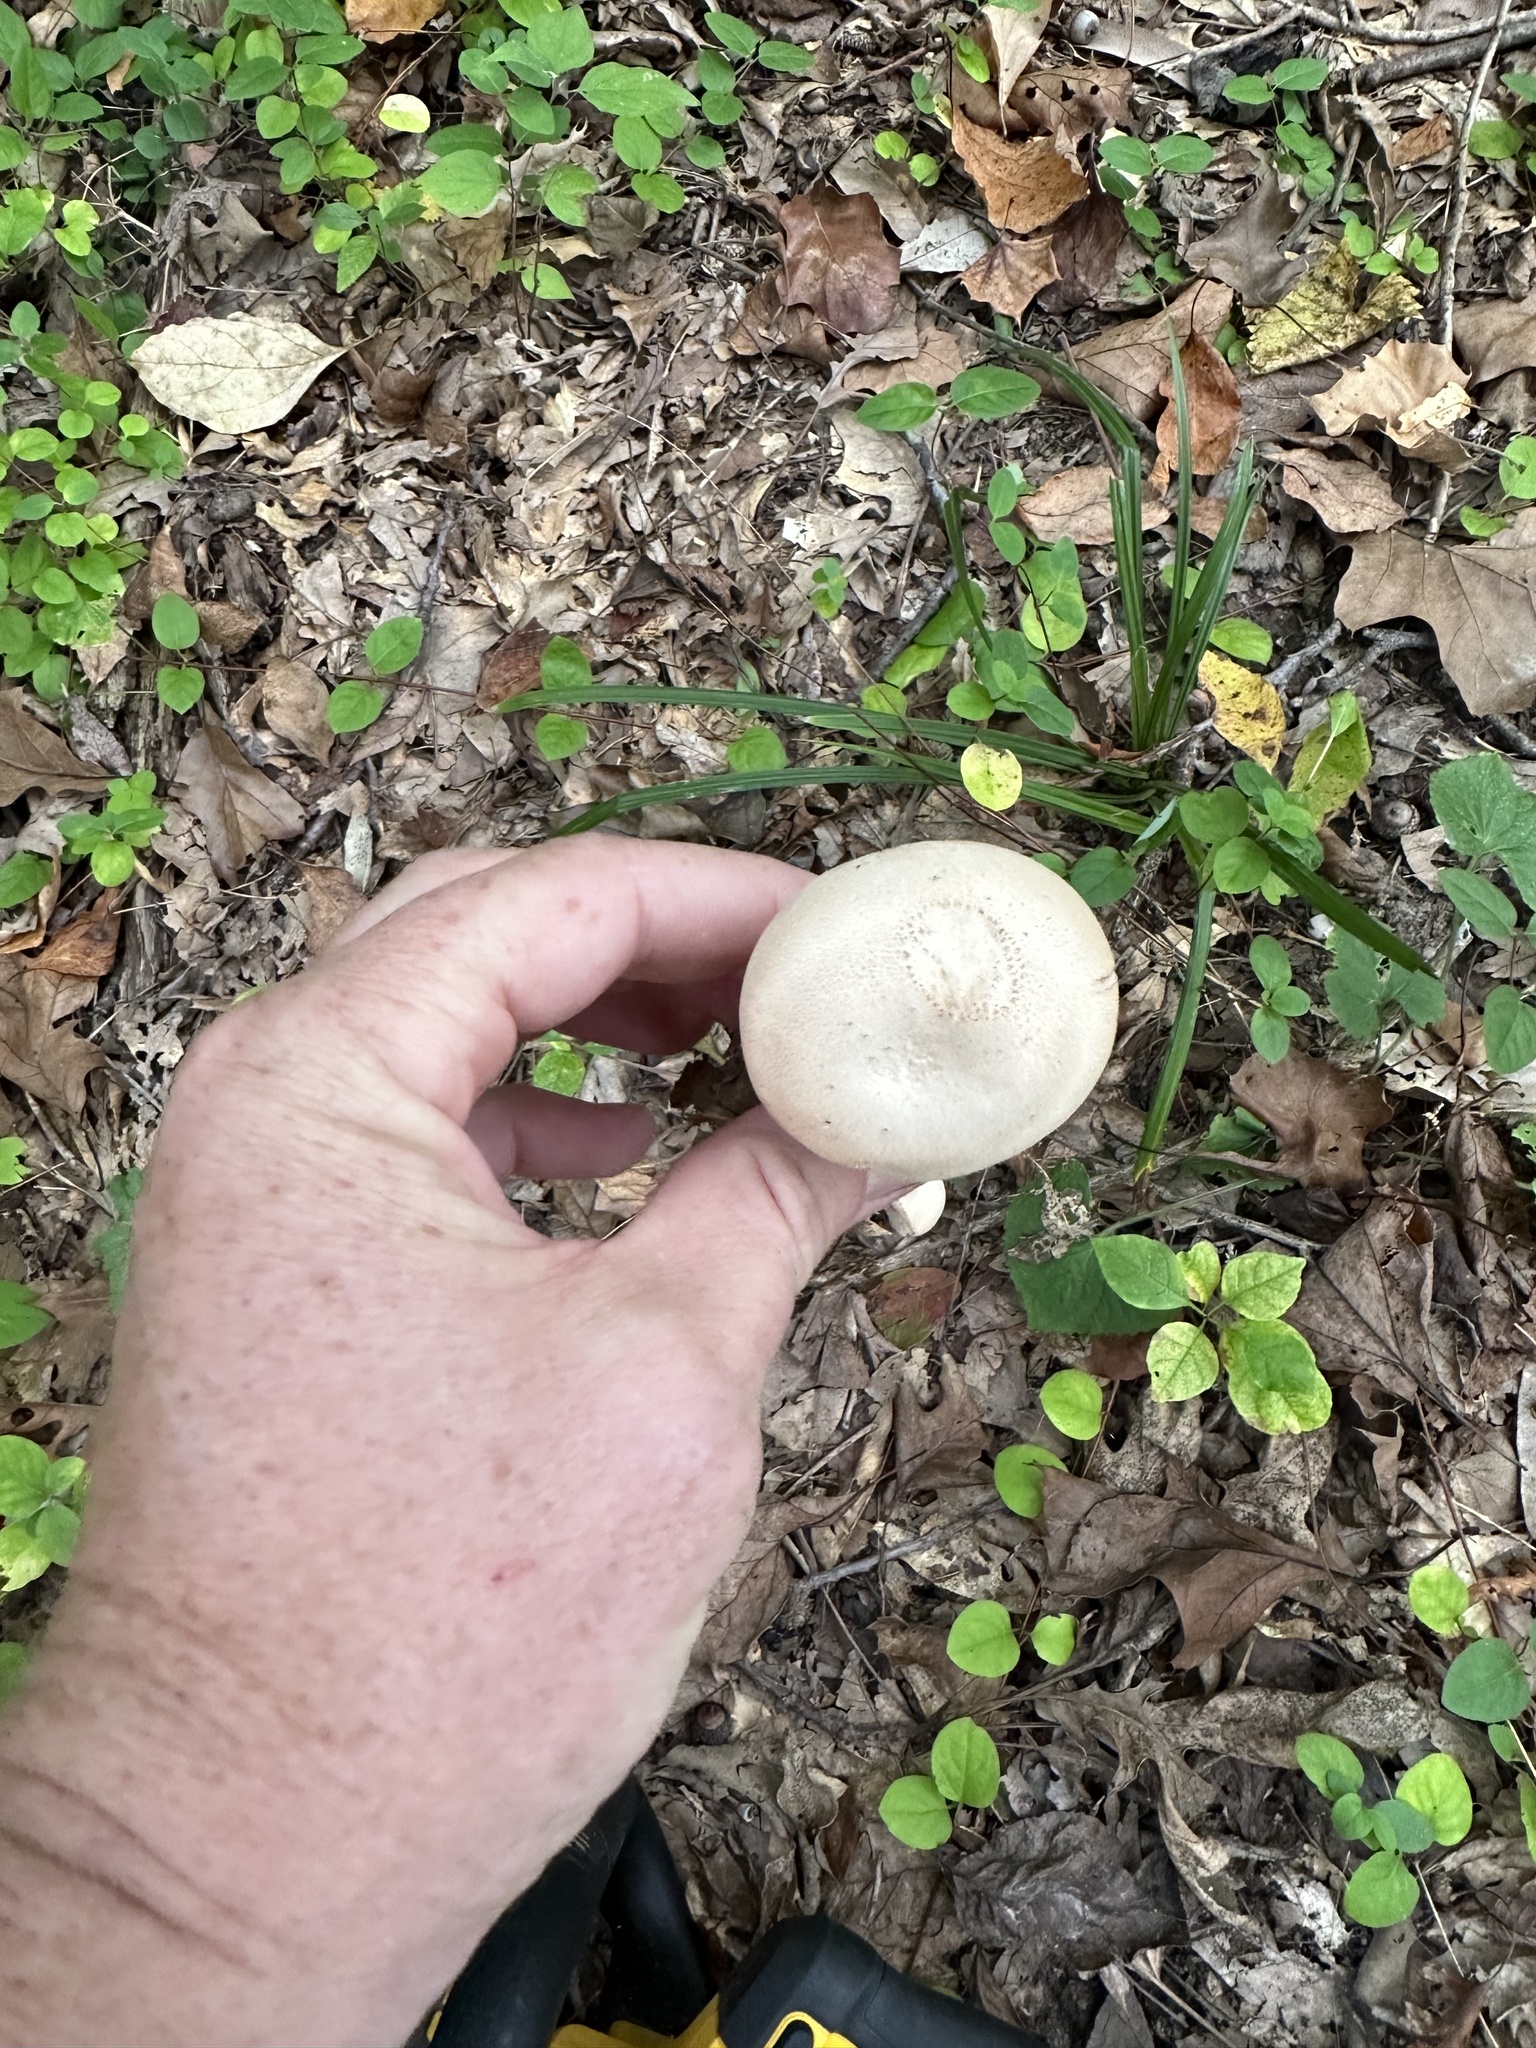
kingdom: Fungi
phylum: Basidiomycota
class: Agaricomycetes
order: Agaricales
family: Hydnangiaceae
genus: Laccaria
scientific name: Laccaria ochropurpurea
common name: Purple laccaria
